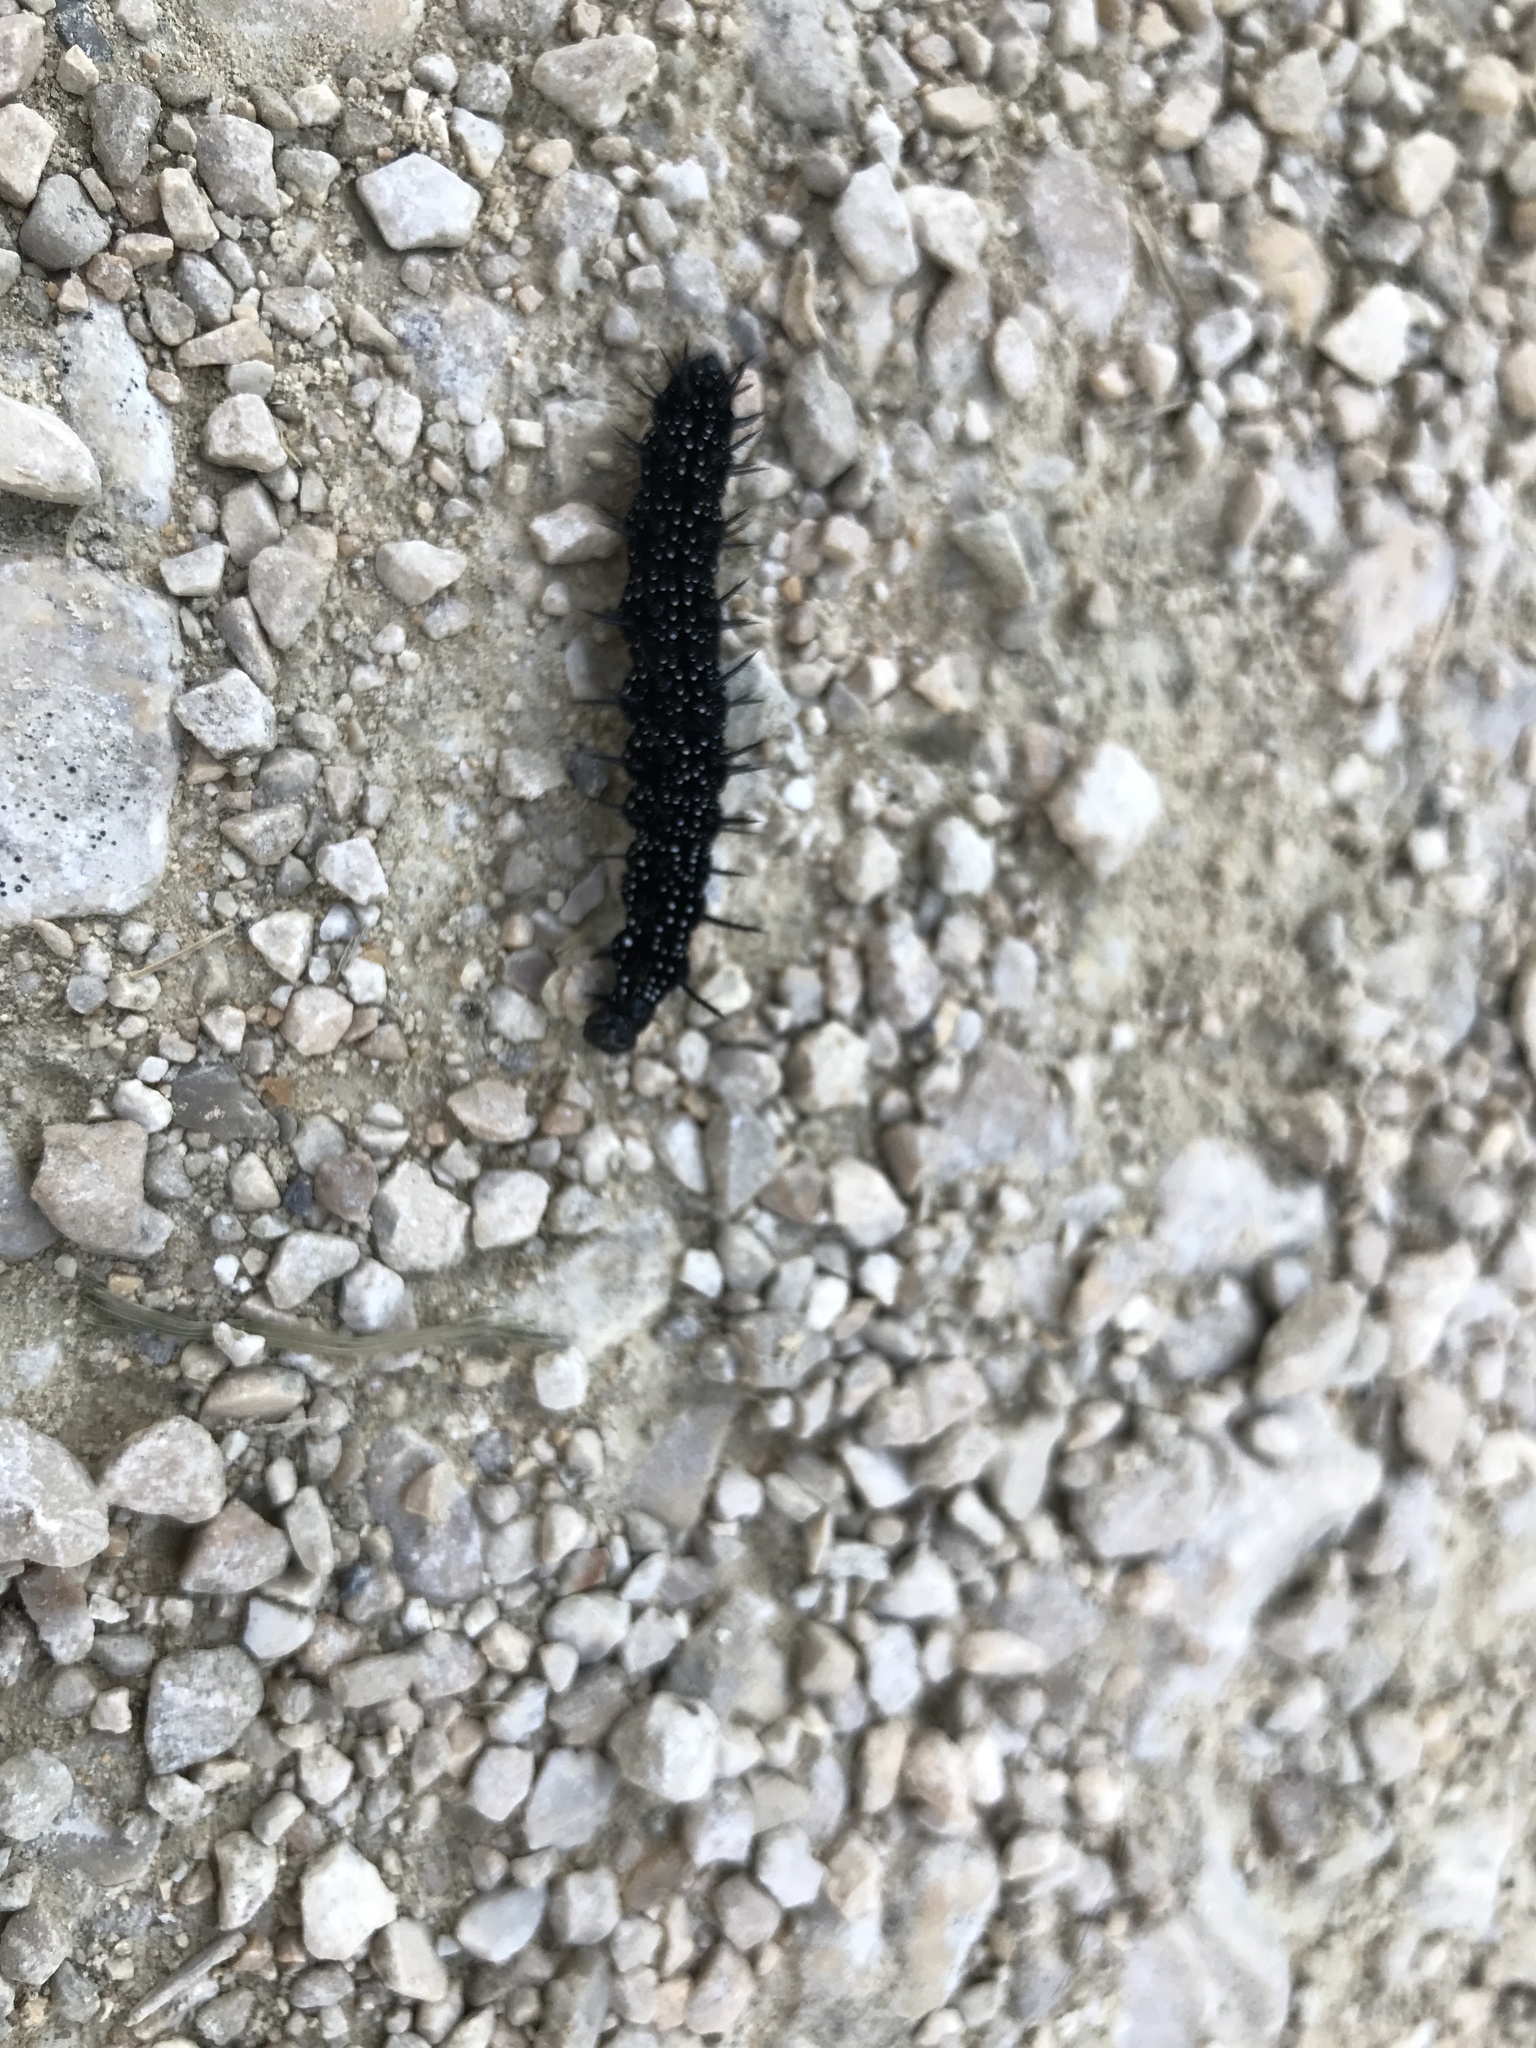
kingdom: Animalia
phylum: Arthropoda
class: Insecta
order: Lepidoptera
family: Nymphalidae
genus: Aglais
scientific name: Aglais io
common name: Peacock
